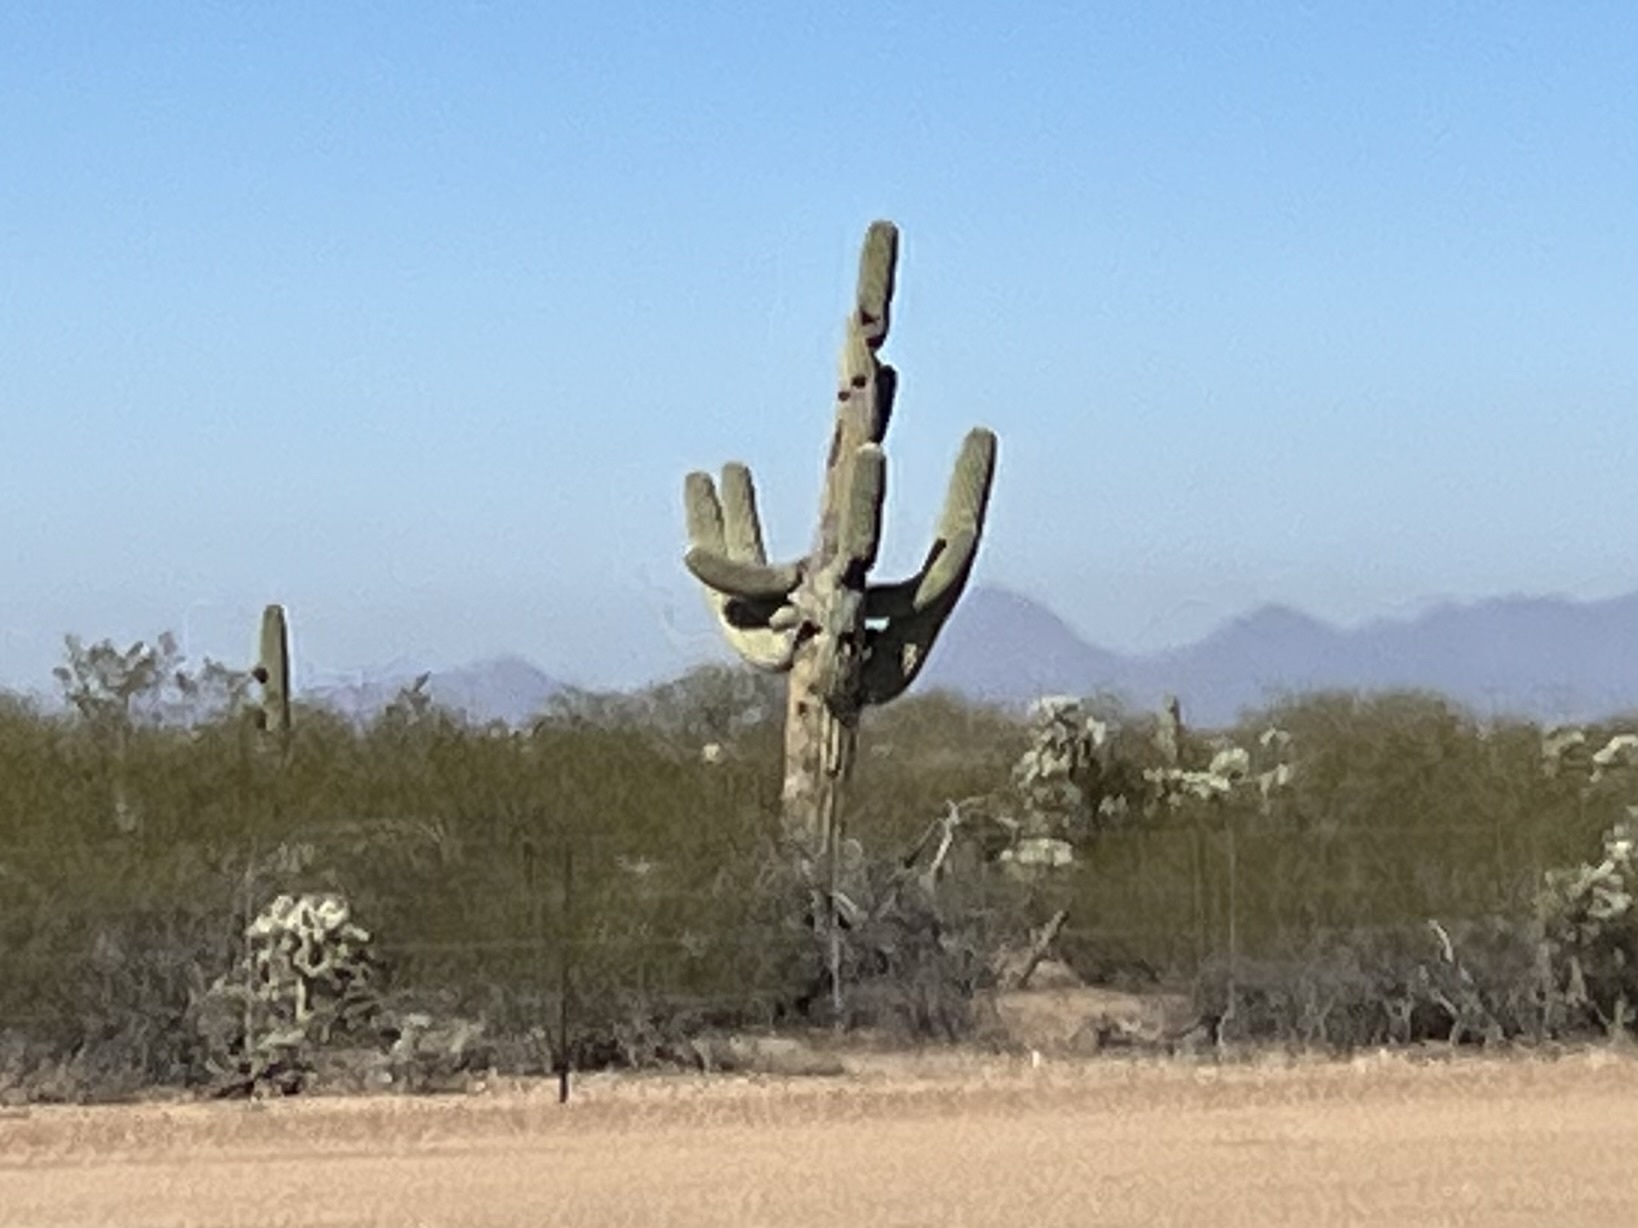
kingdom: Plantae
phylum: Tracheophyta
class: Magnoliopsida
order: Caryophyllales
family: Cactaceae
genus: Carnegiea
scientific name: Carnegiea gigantea
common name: Saguaro
